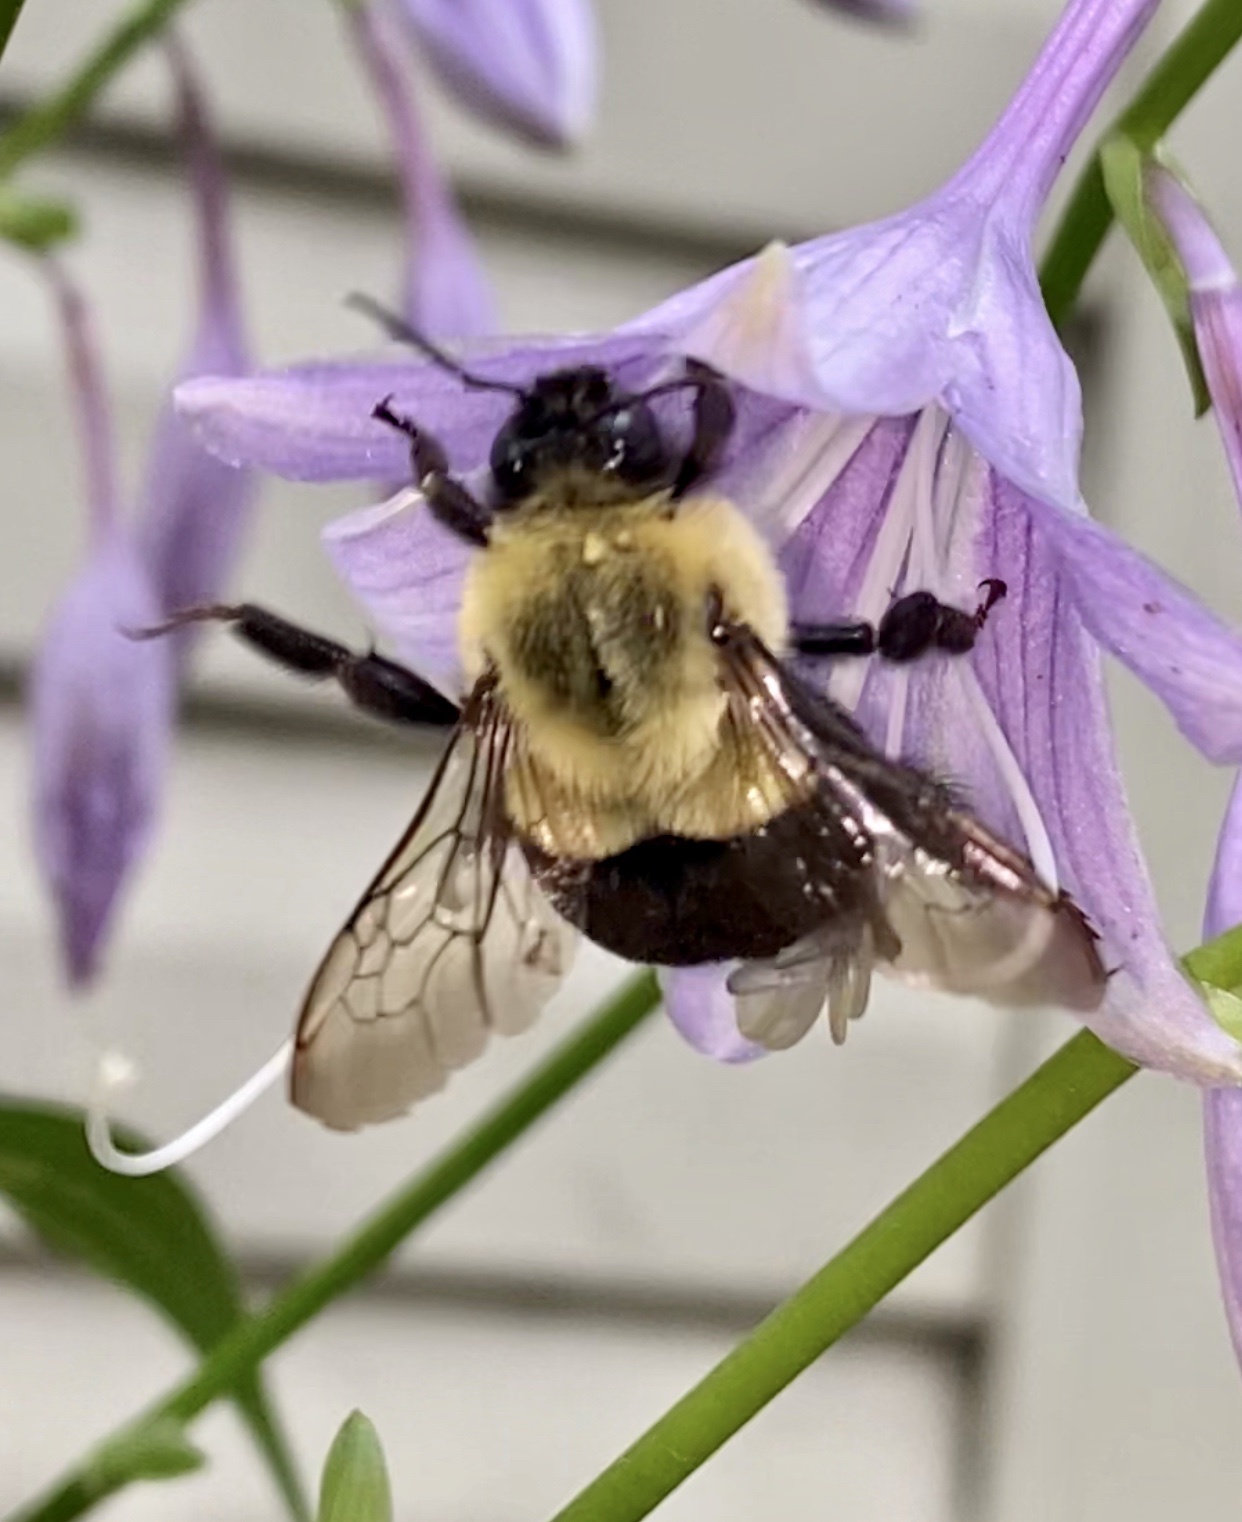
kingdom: Animalia
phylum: Arthropoda
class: Insecta
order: Hymenoptera
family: Apidae
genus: Bombus
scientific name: Bombus impatiens
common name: Common eastern bumble bee
